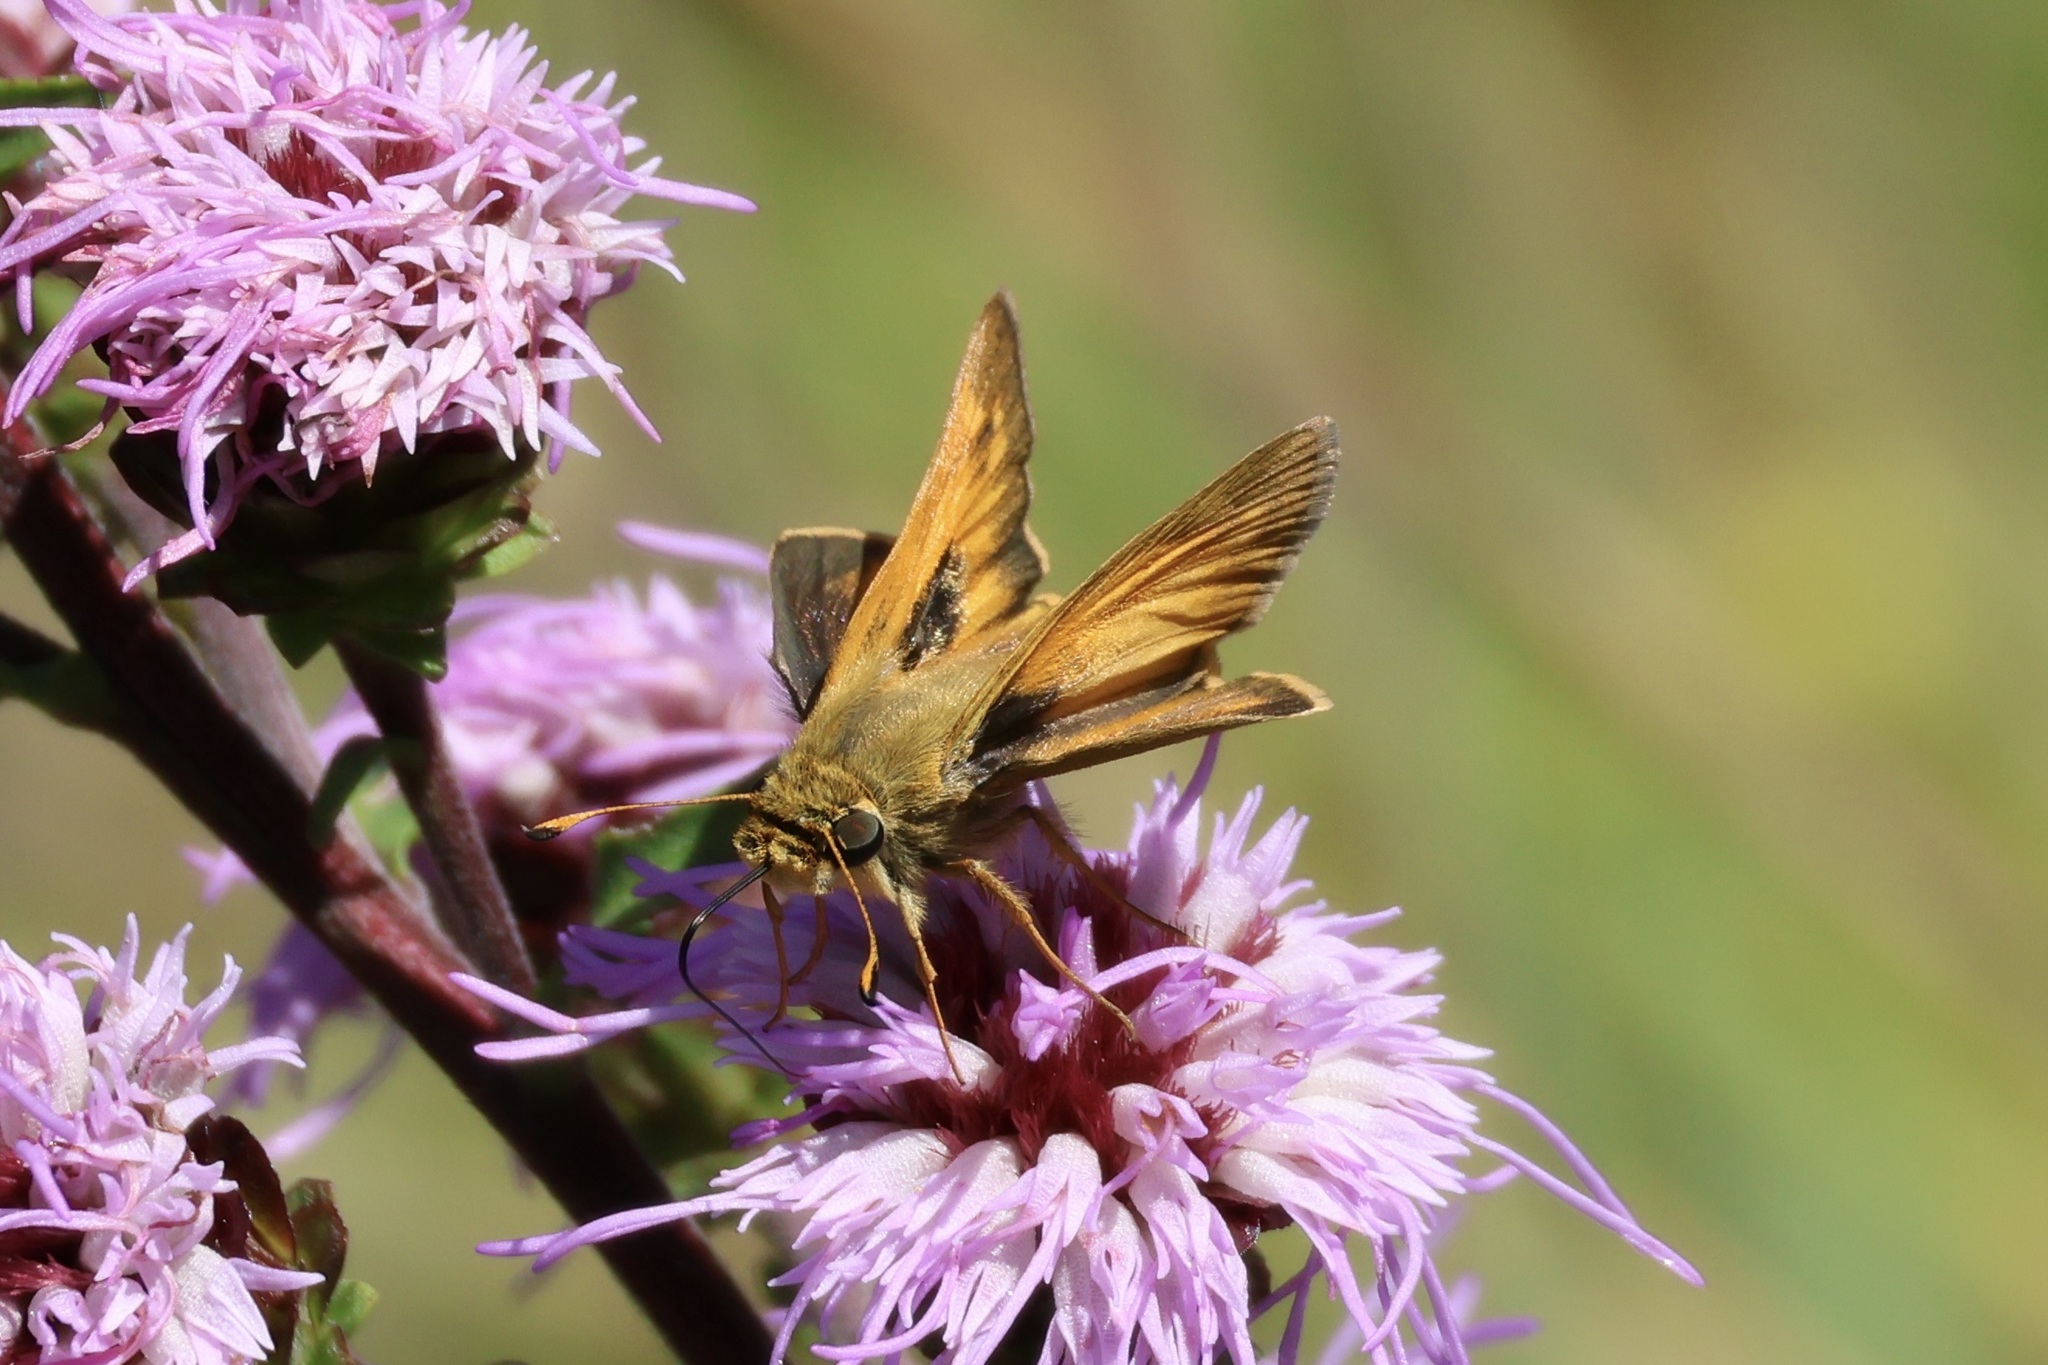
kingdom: Animalia
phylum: Arthropoda
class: Insecta
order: Lepidoptera
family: Hesperiidae
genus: Atalopedes
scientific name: Atalopedes
